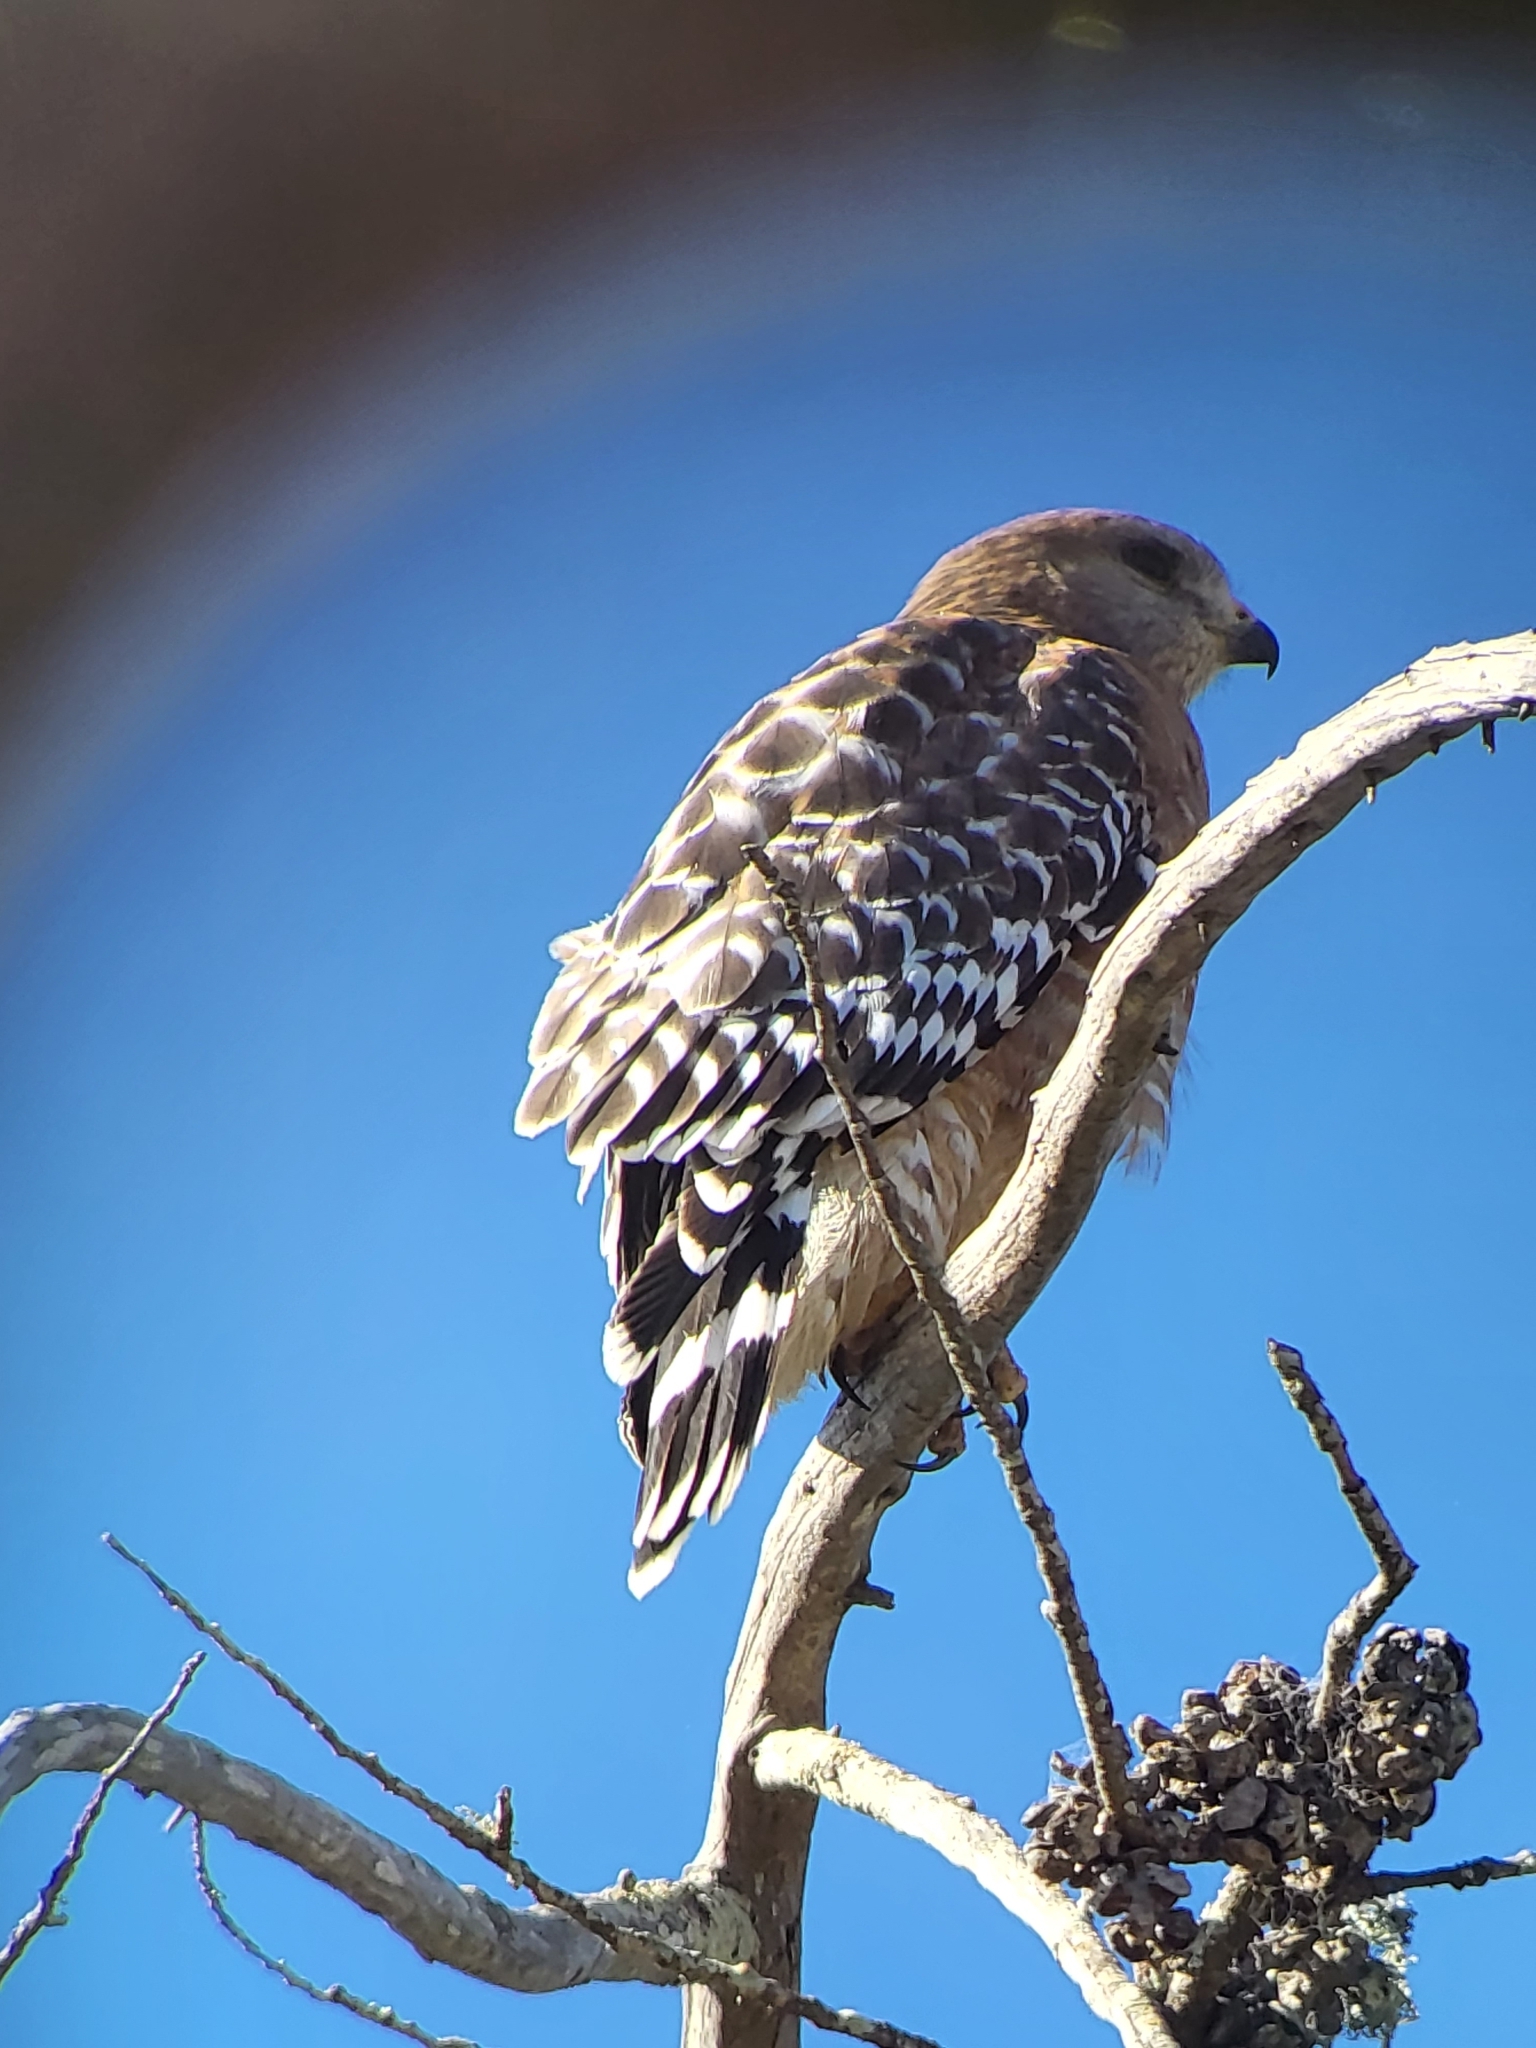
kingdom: Animalia
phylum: Chordata
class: Aves
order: Accipitriformes
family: Accipitridae
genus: Buteo
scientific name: Buteo lineatus
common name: Red-shouldered hawk
